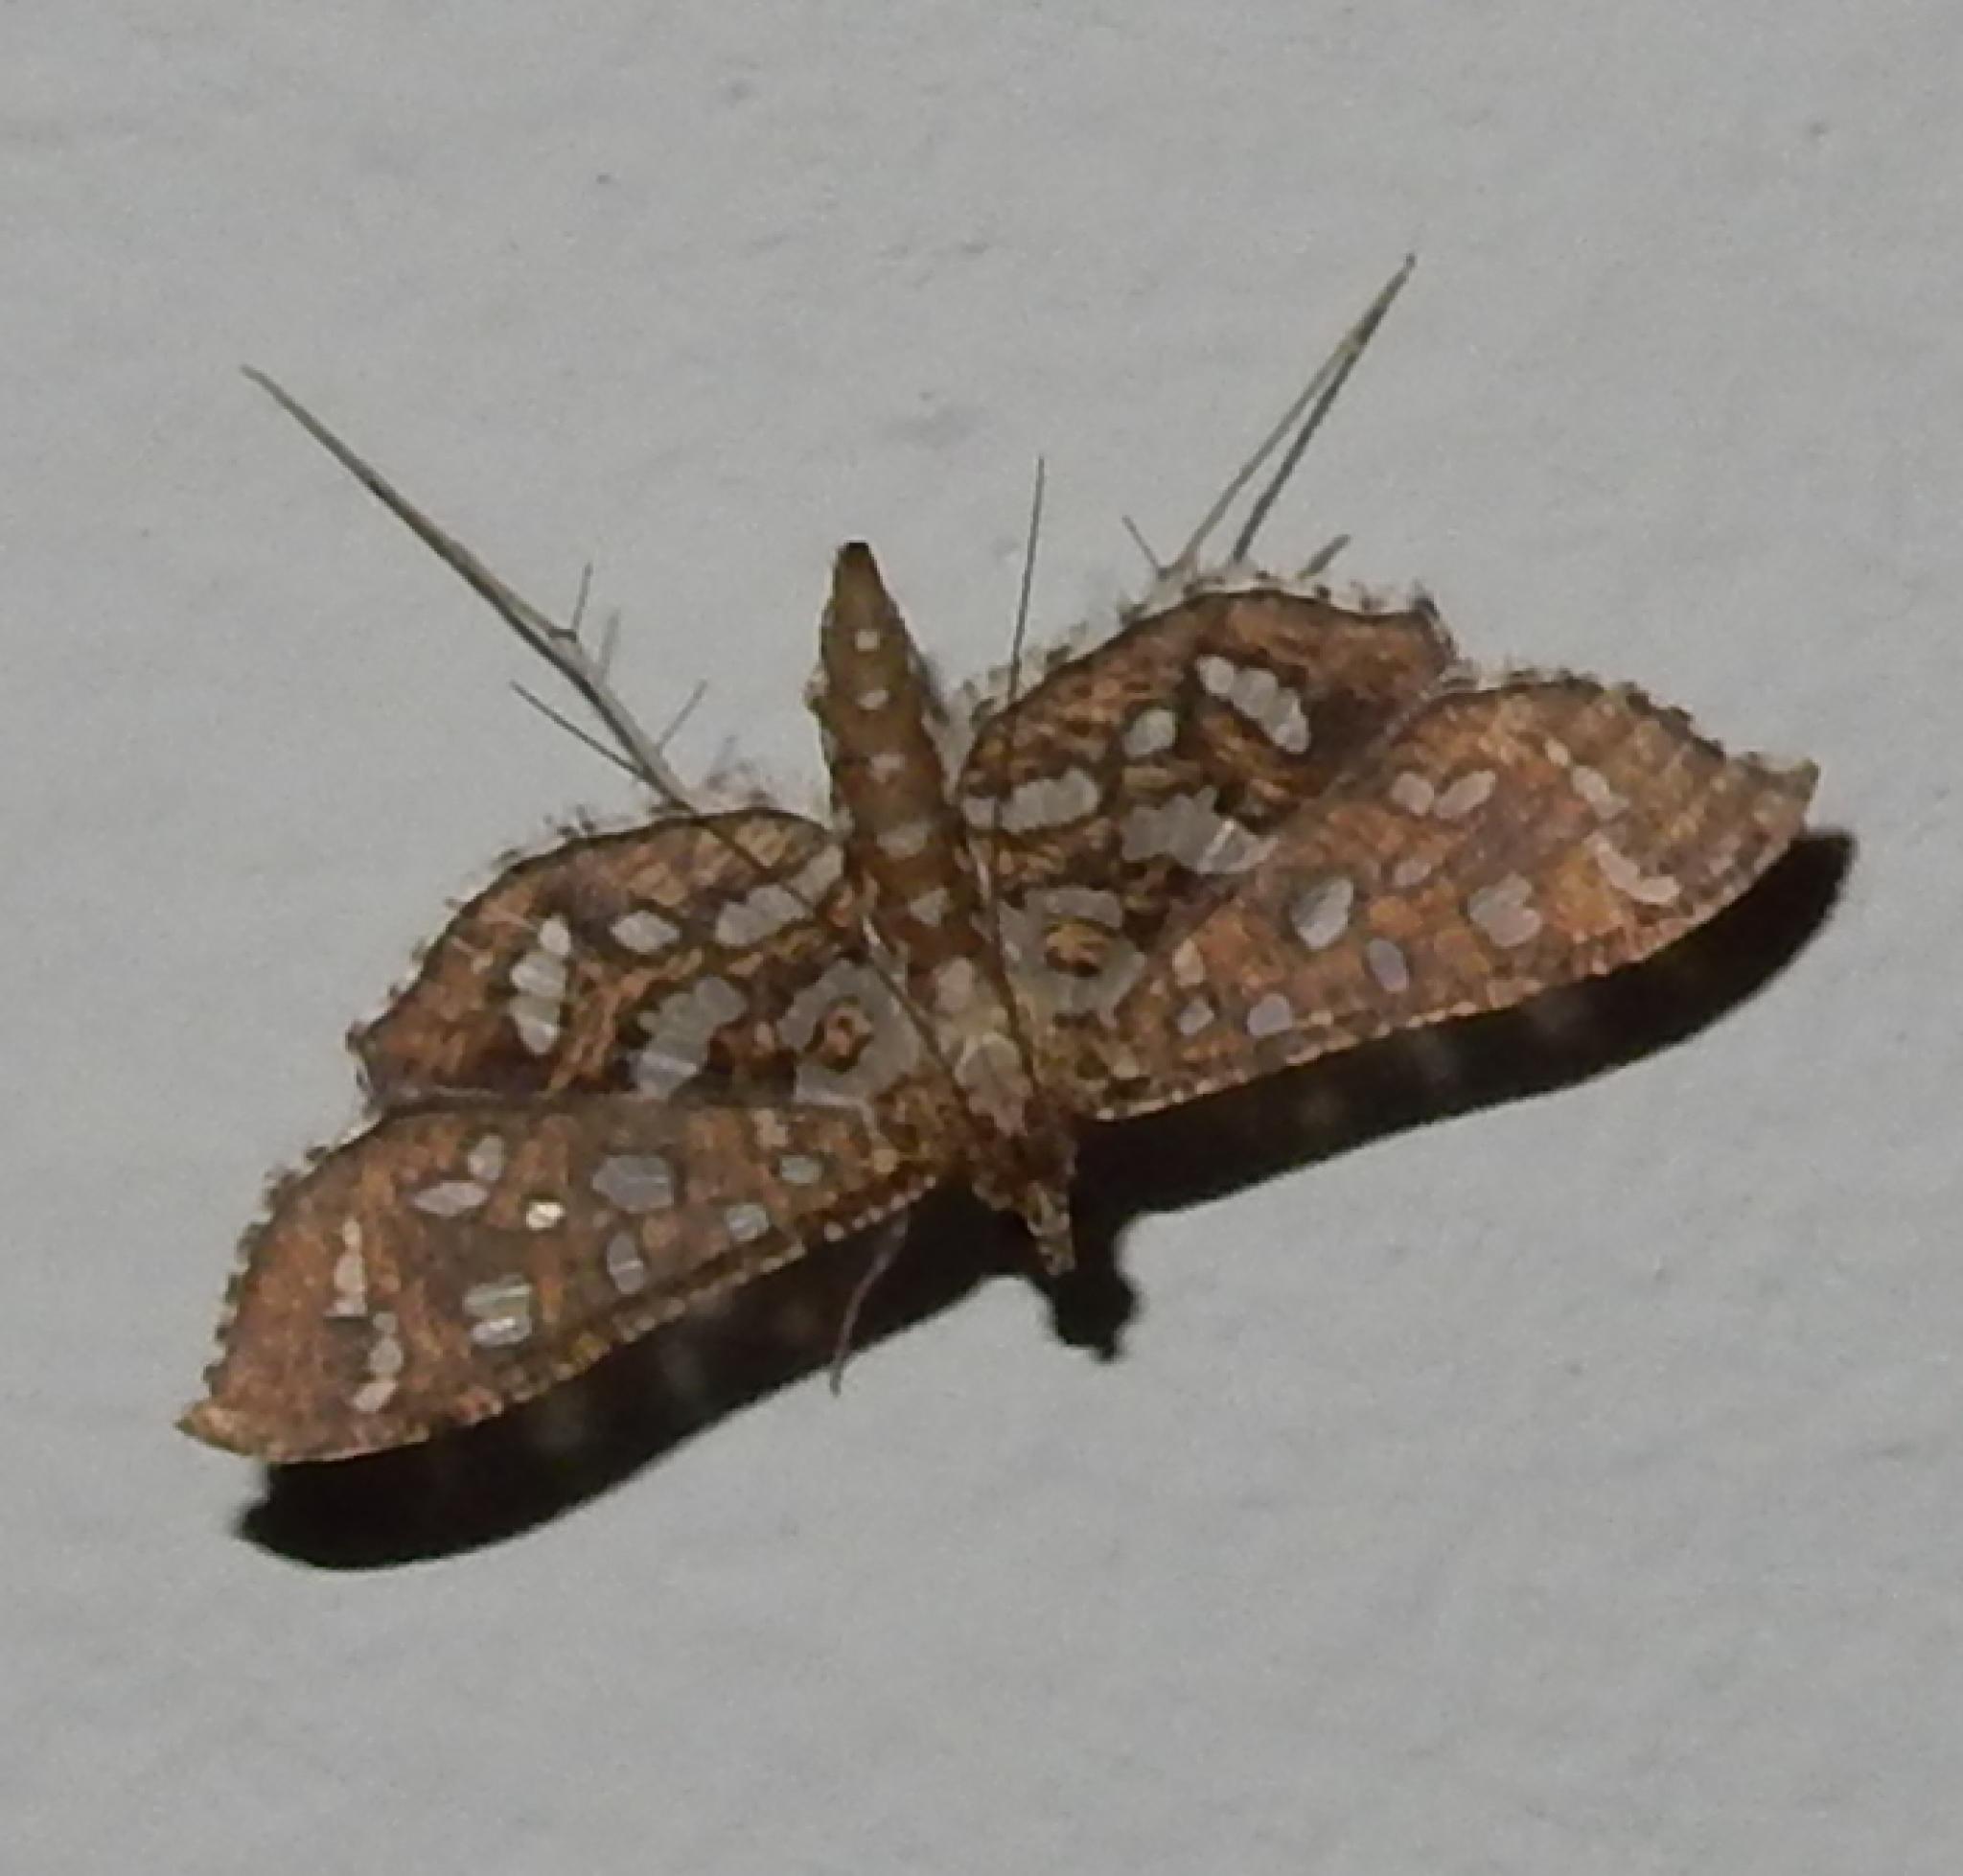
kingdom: Animalia
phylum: Arthropoda
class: Insecta
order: Lepidoptera
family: Crambidae
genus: Nausinoe
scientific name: Nausinoe geometralis
